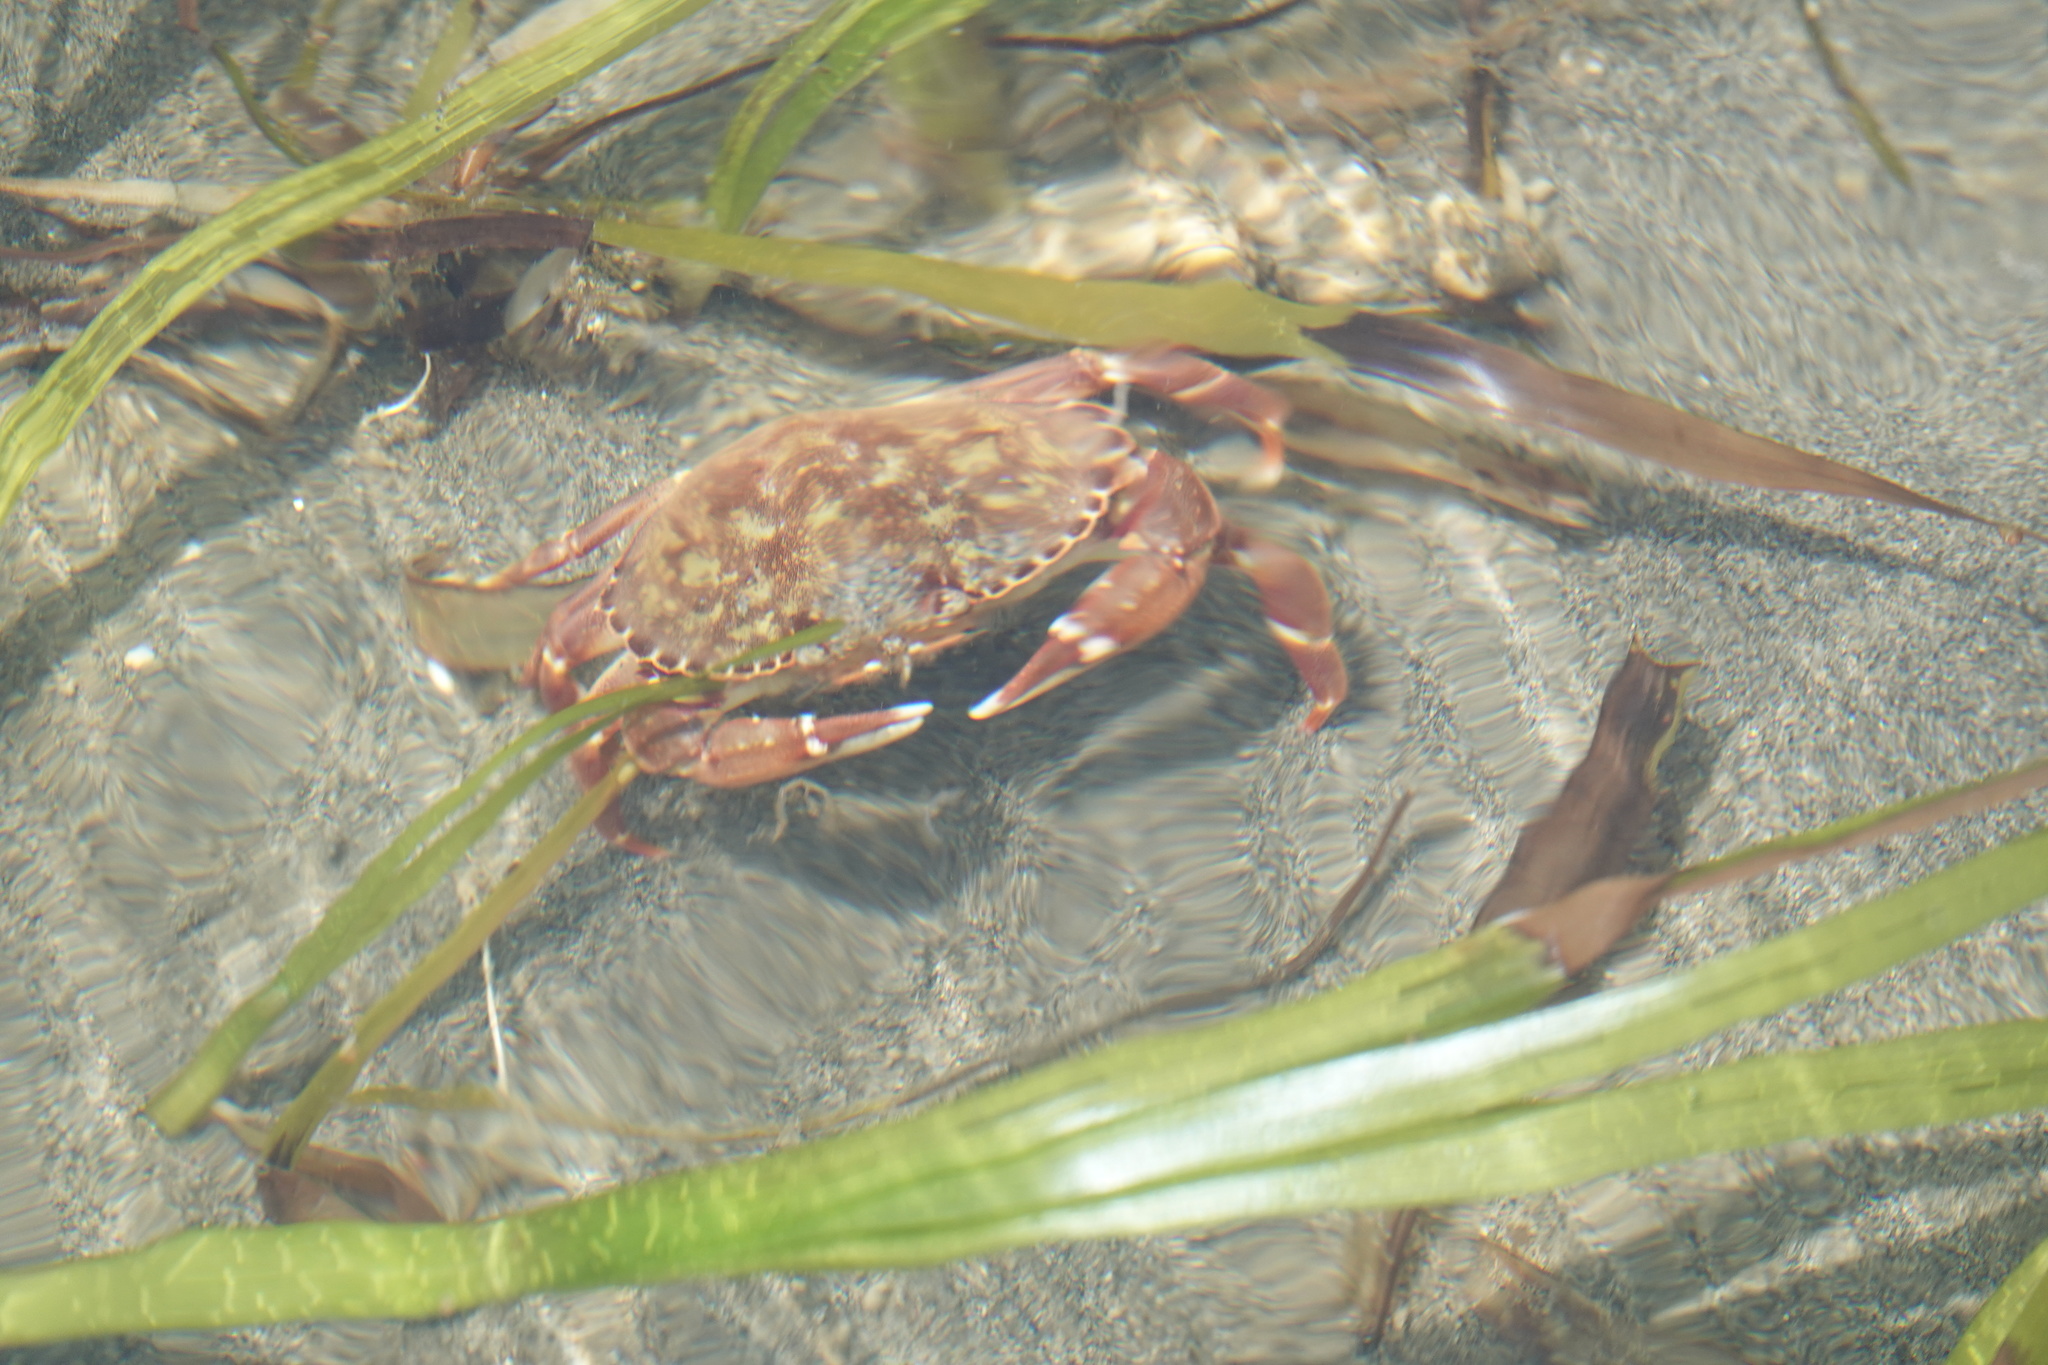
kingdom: Animalia
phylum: Arthropoda
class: Malacostraca
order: Decapoda
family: Cancridae
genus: Metacarcinus
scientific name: Metacarcinus gracilis
